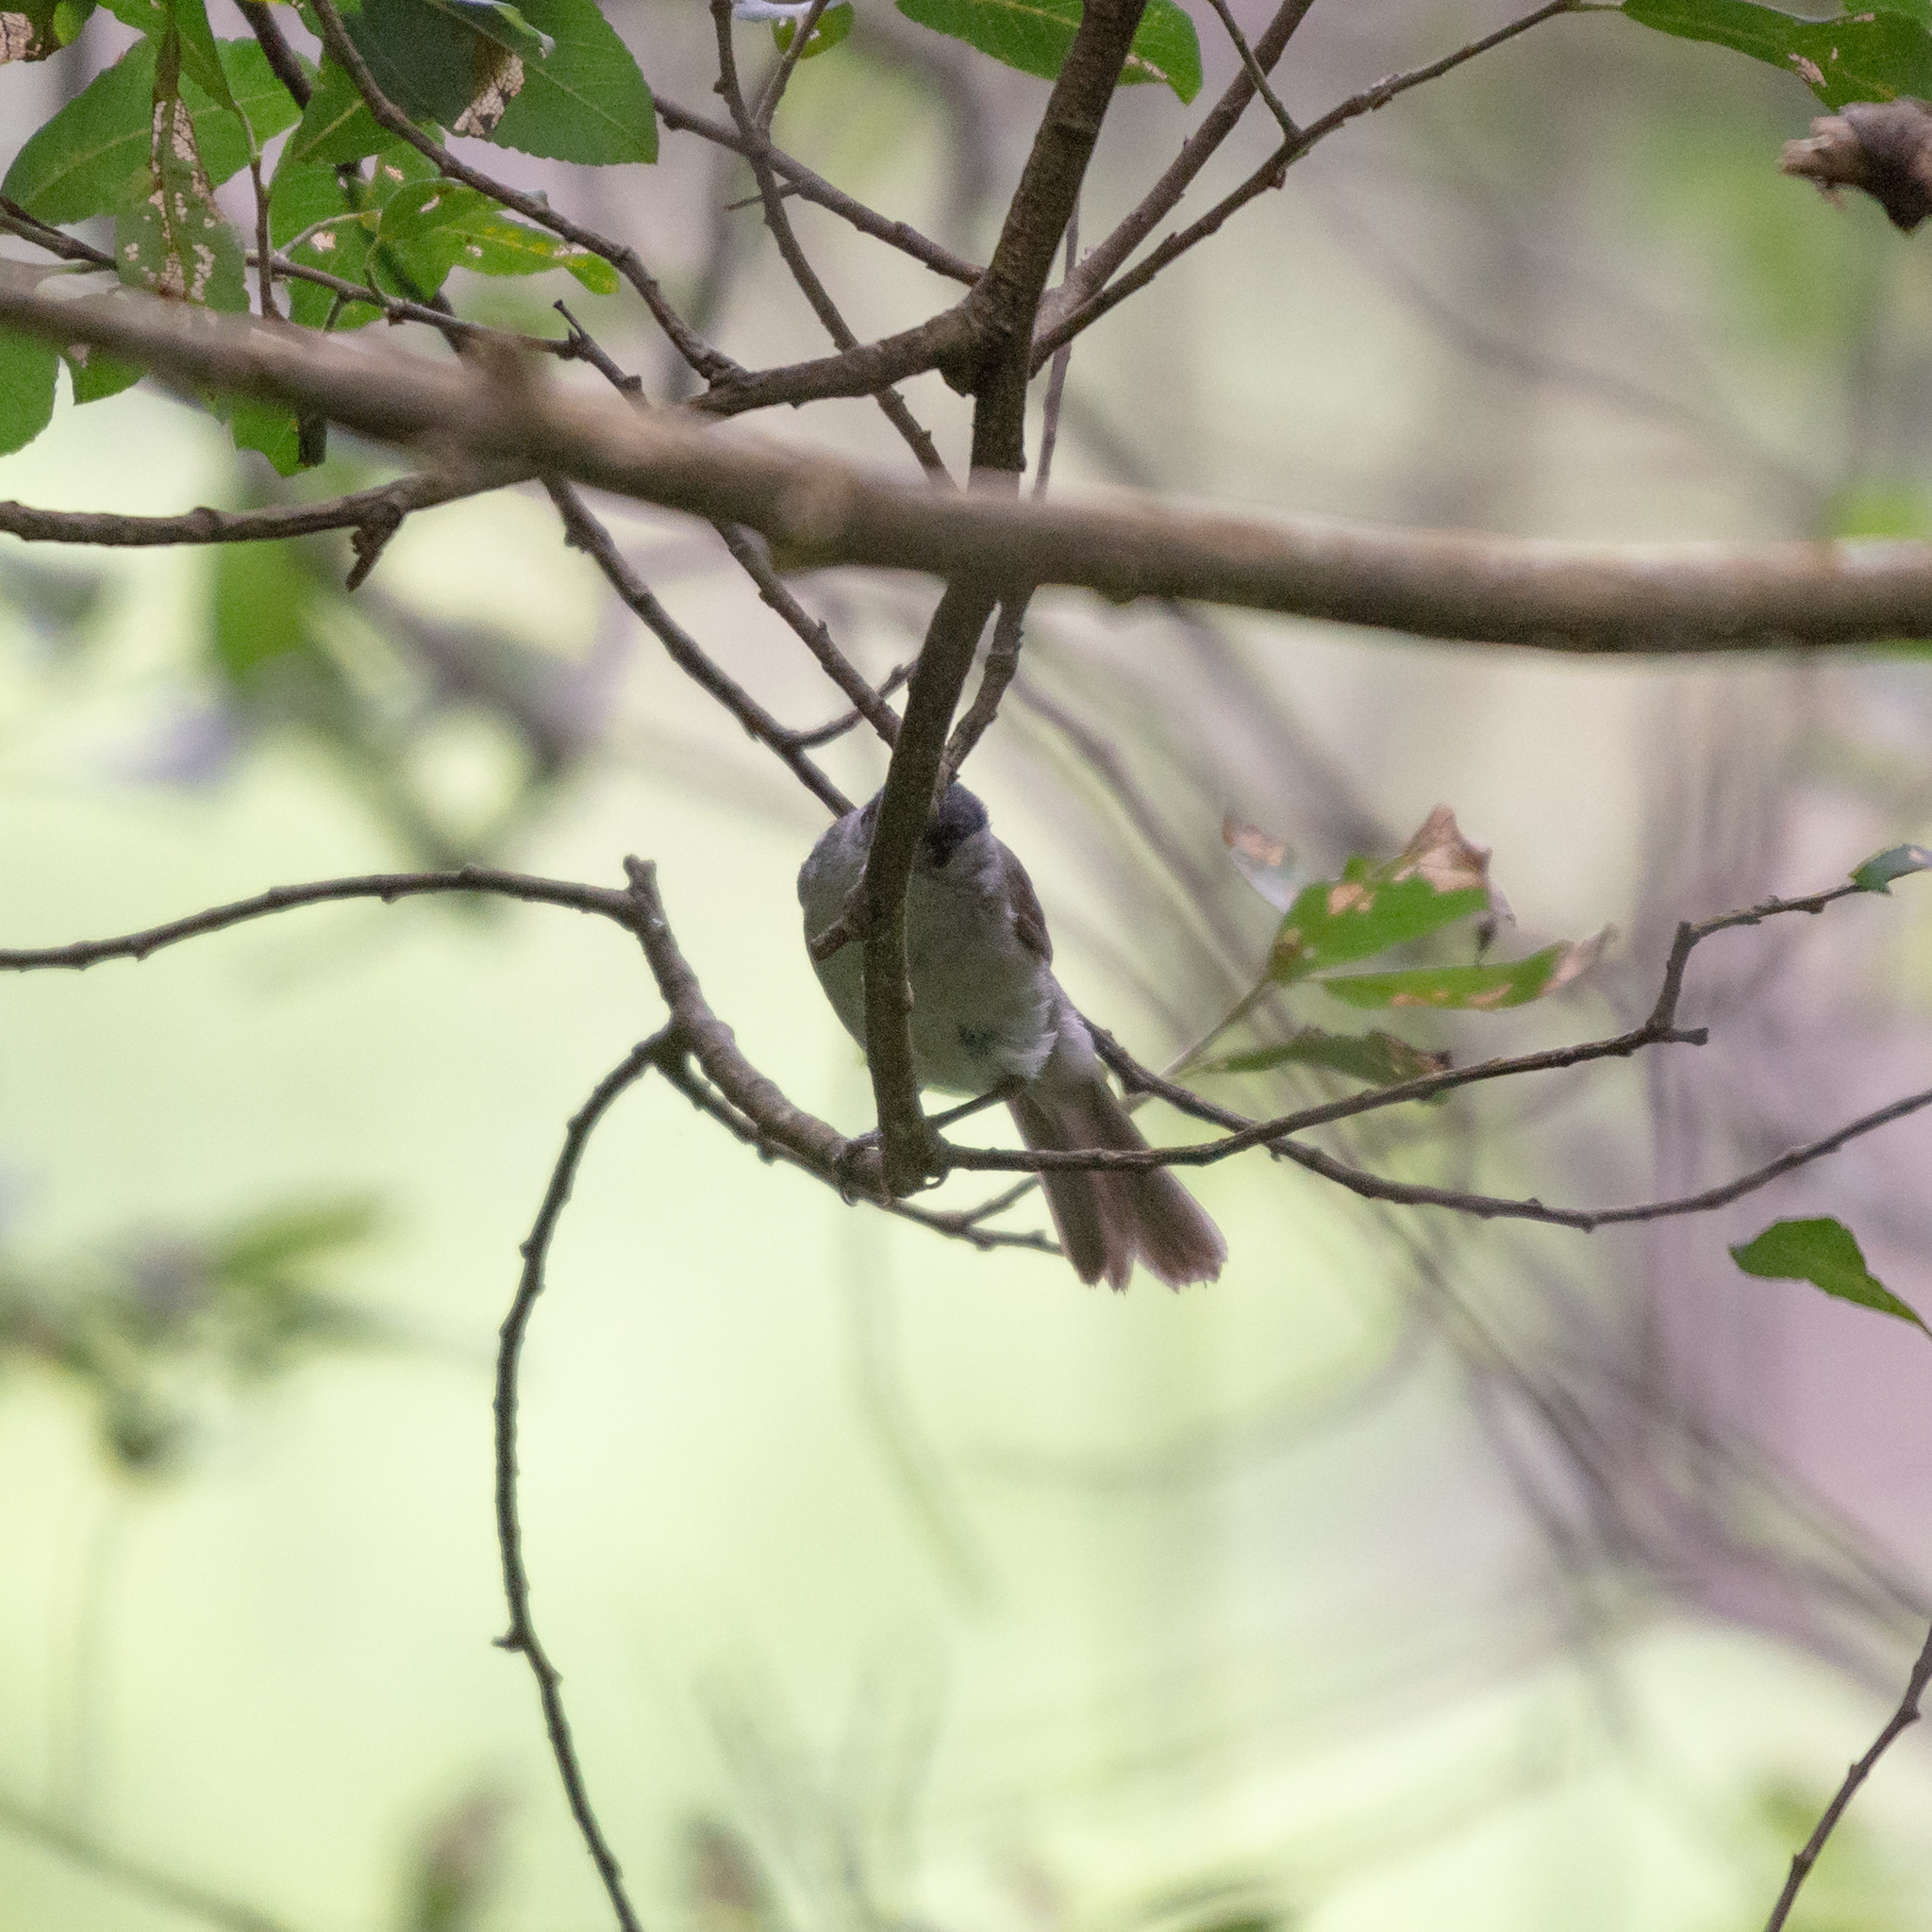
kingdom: Animalia
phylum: Chordata
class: Aves
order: Passeriformes
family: Sylviidae
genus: Sylvia
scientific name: Sylvia atricapilla
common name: Eurasian blackcap
